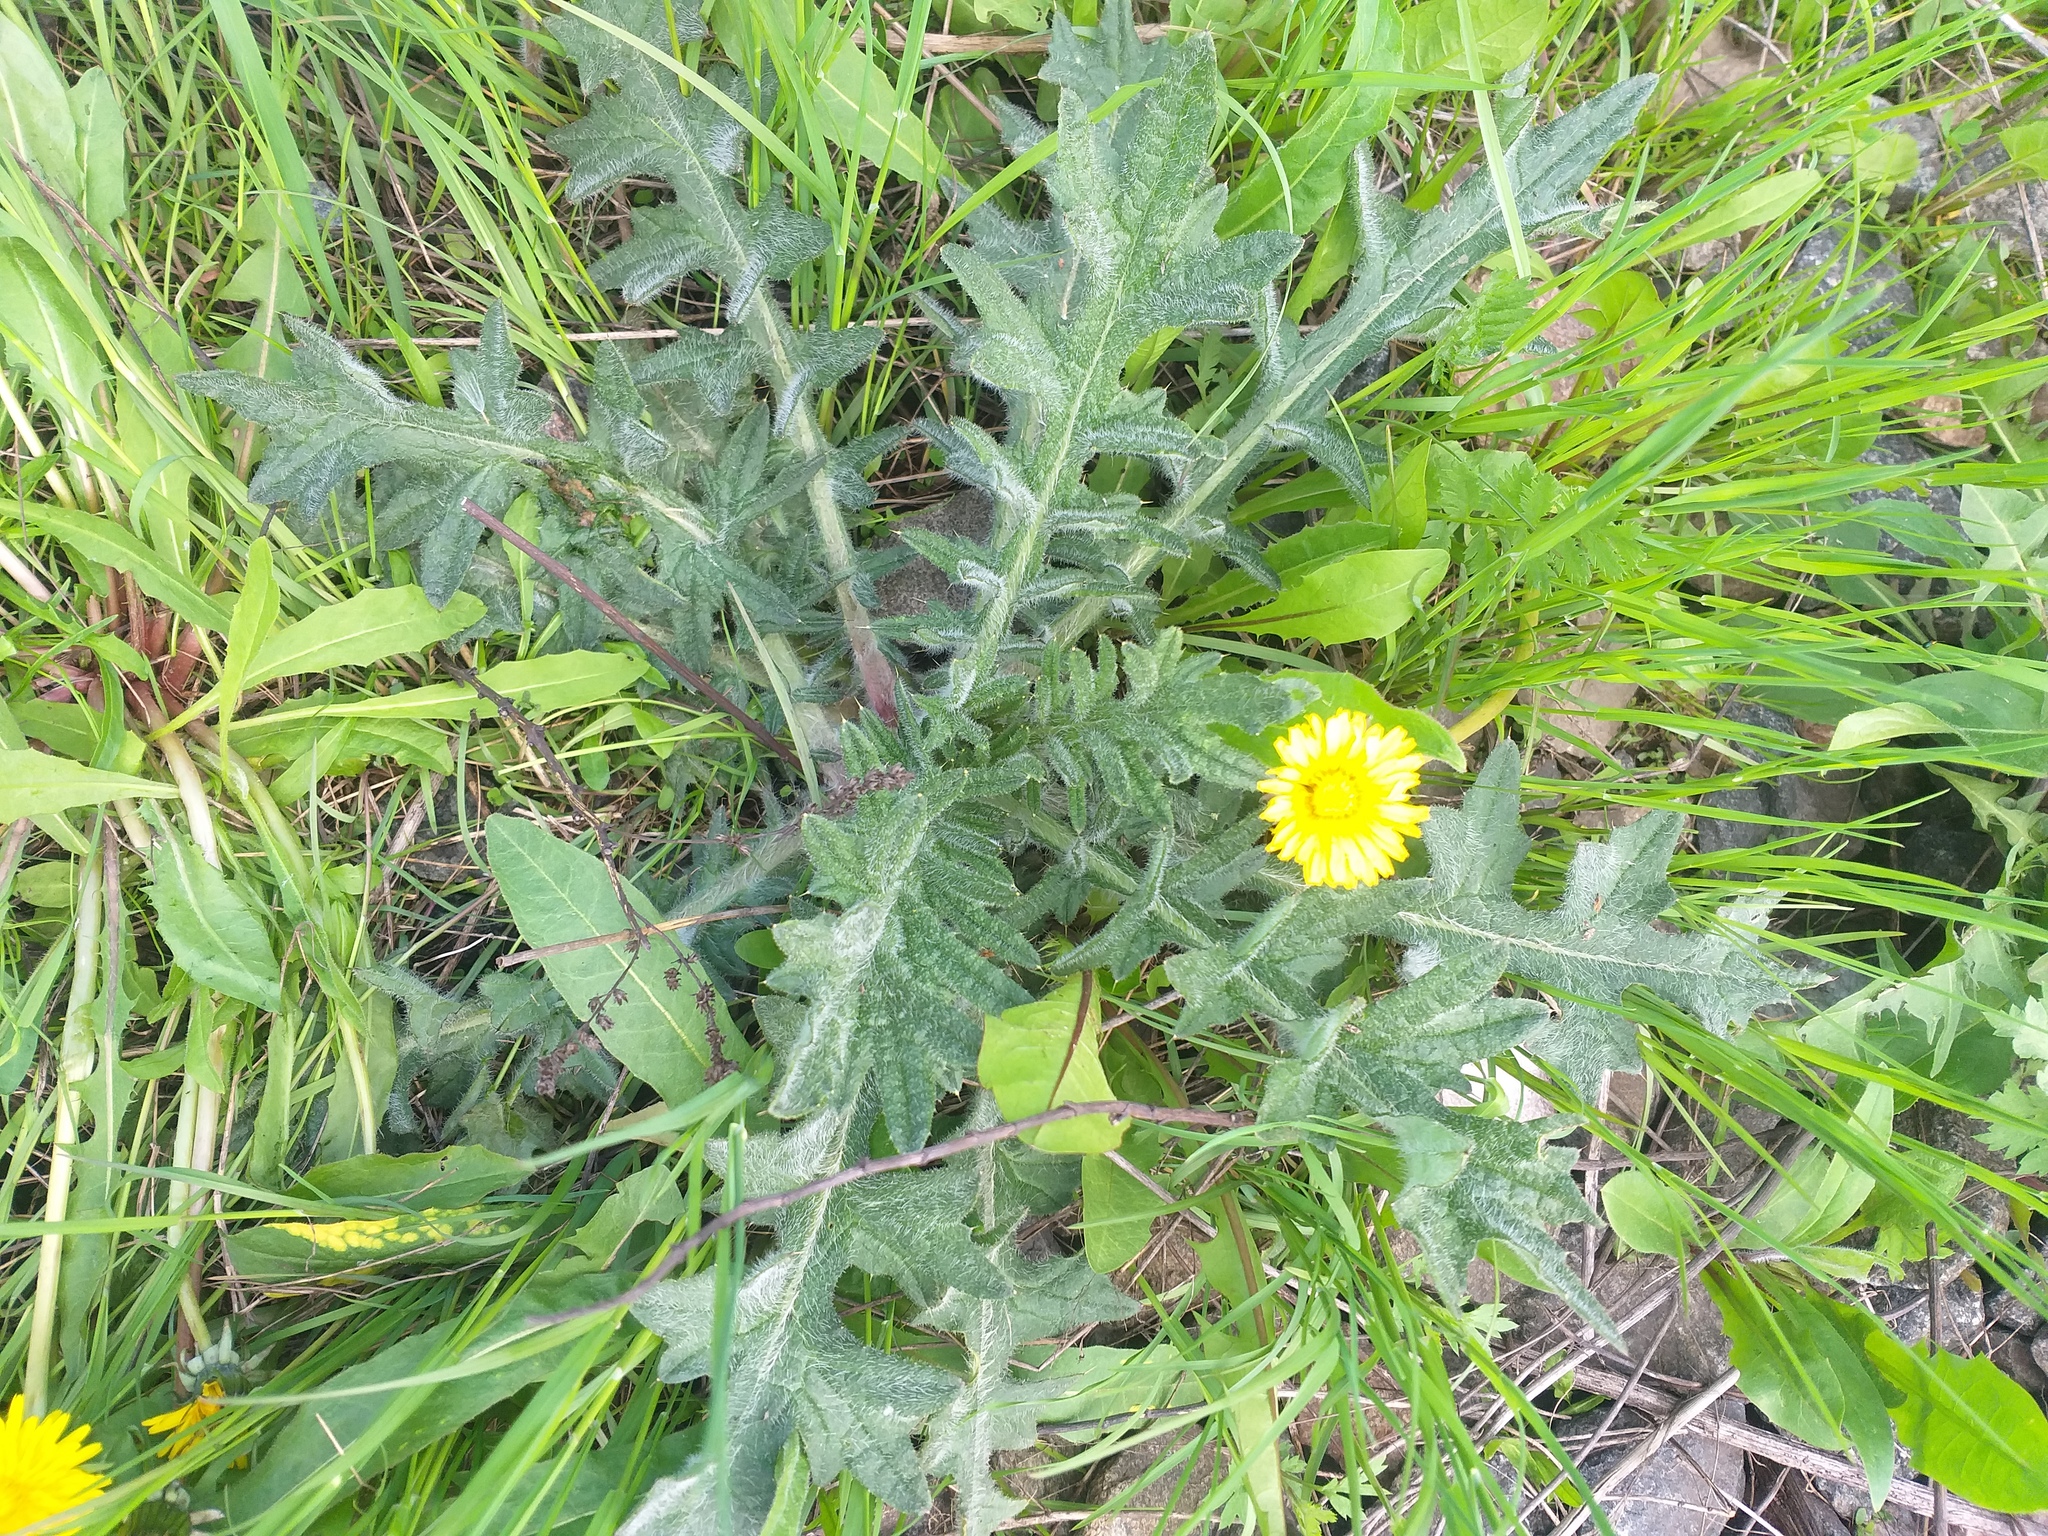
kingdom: Plantae
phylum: Tracheophyta
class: Magnoliopsida
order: Asterales
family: Asteraceae
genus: Cirsium
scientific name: Cirsium vulgare
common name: Bull thistle
